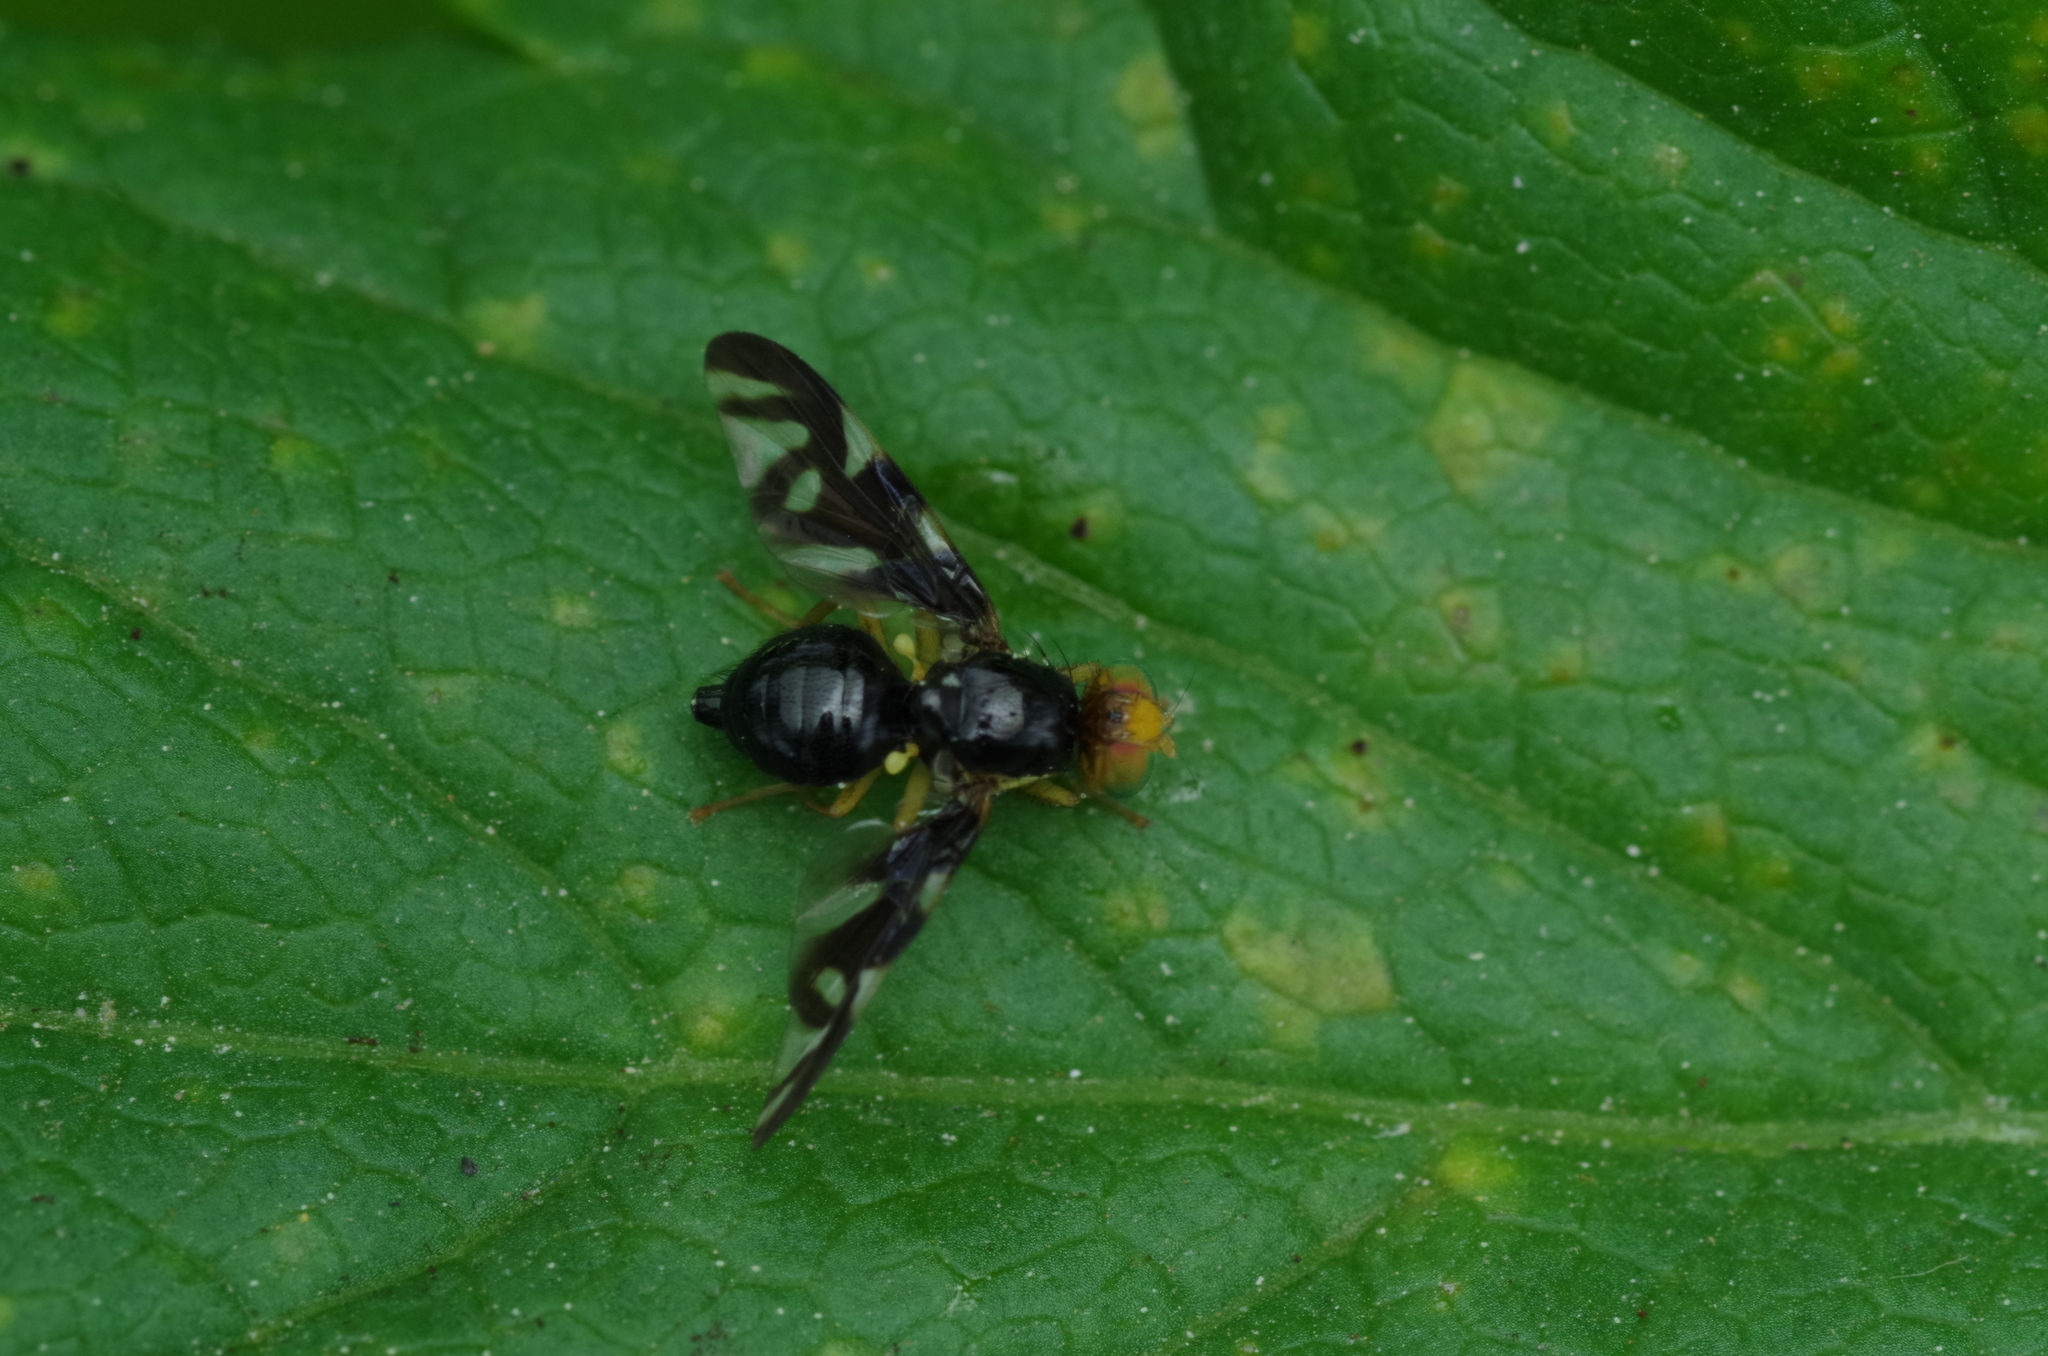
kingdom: Animalia
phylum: Arthropoda
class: Insecta
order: Diptera
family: Tephritidae
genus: Euleia
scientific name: Euleia heraclei
